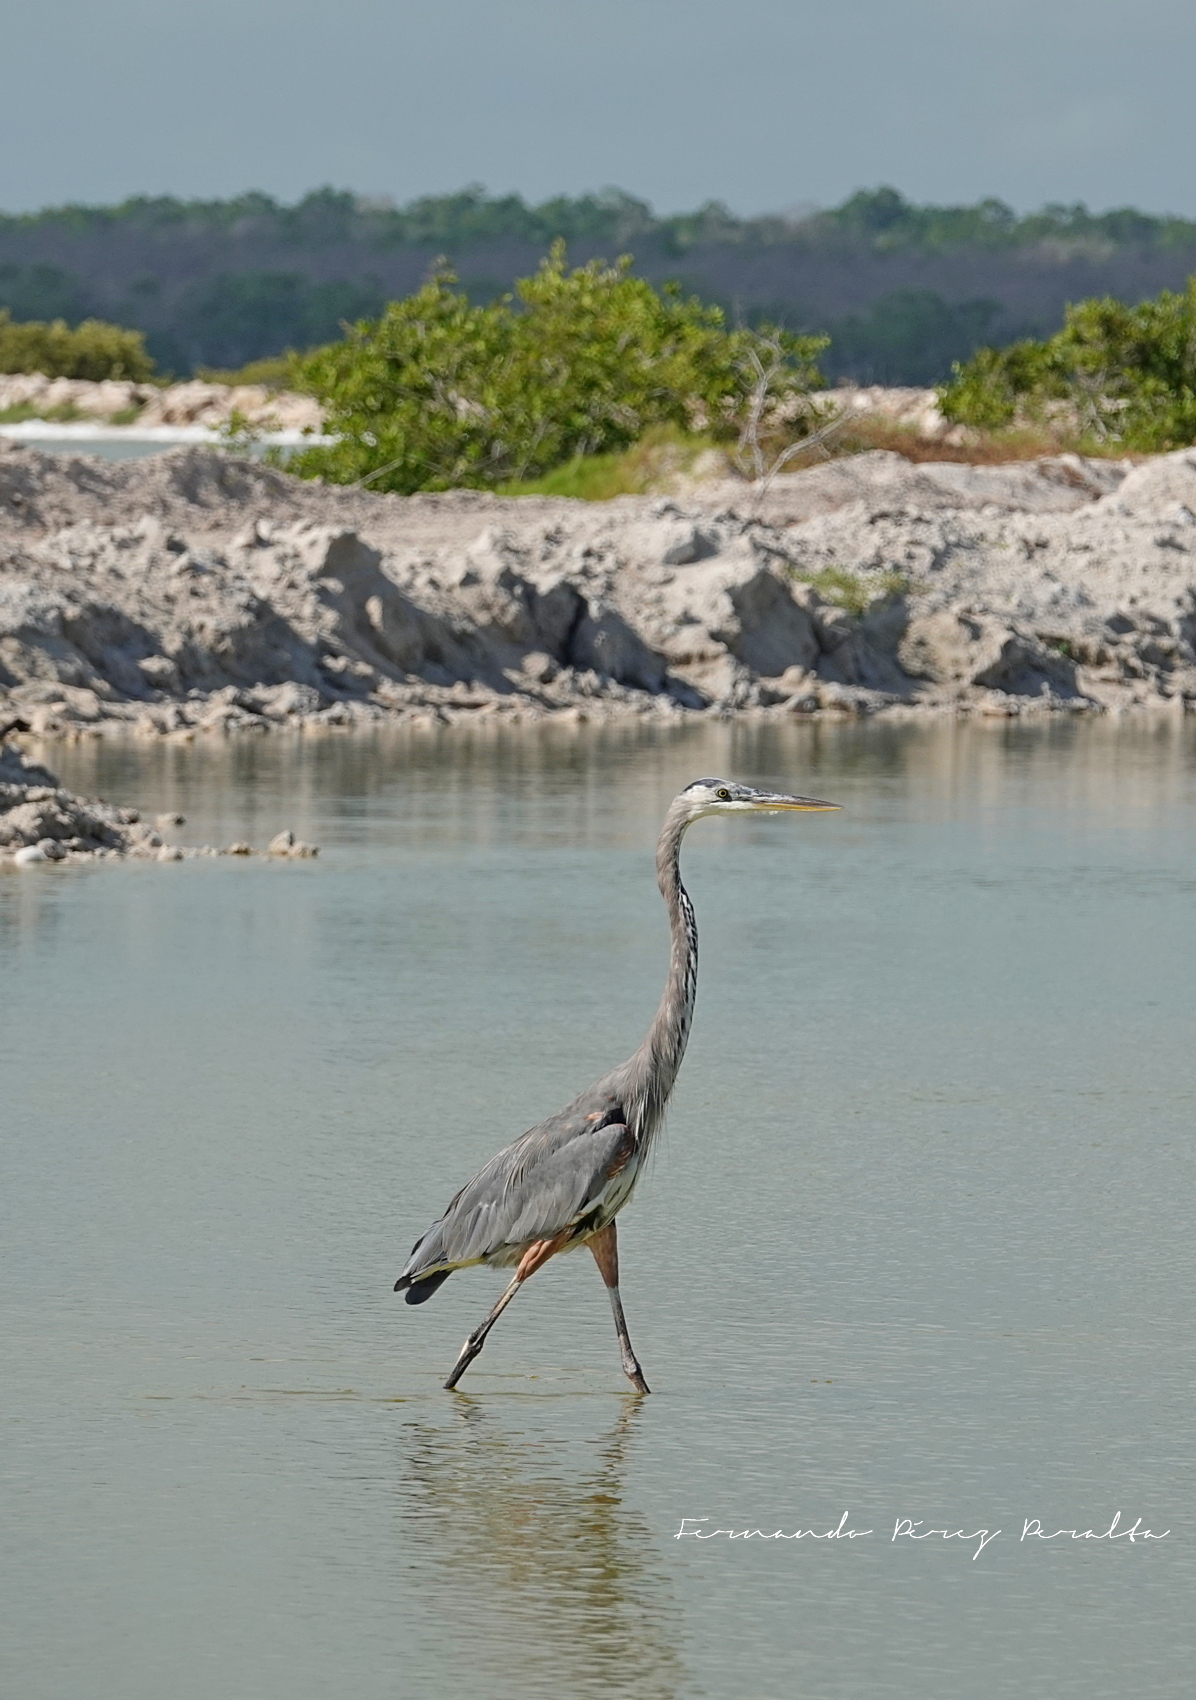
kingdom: Animalia
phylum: Chordata
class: Aves
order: Pelecaniformes
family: Ardeidae
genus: Ardea
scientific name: Ardea herodias
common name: Great blue heron
